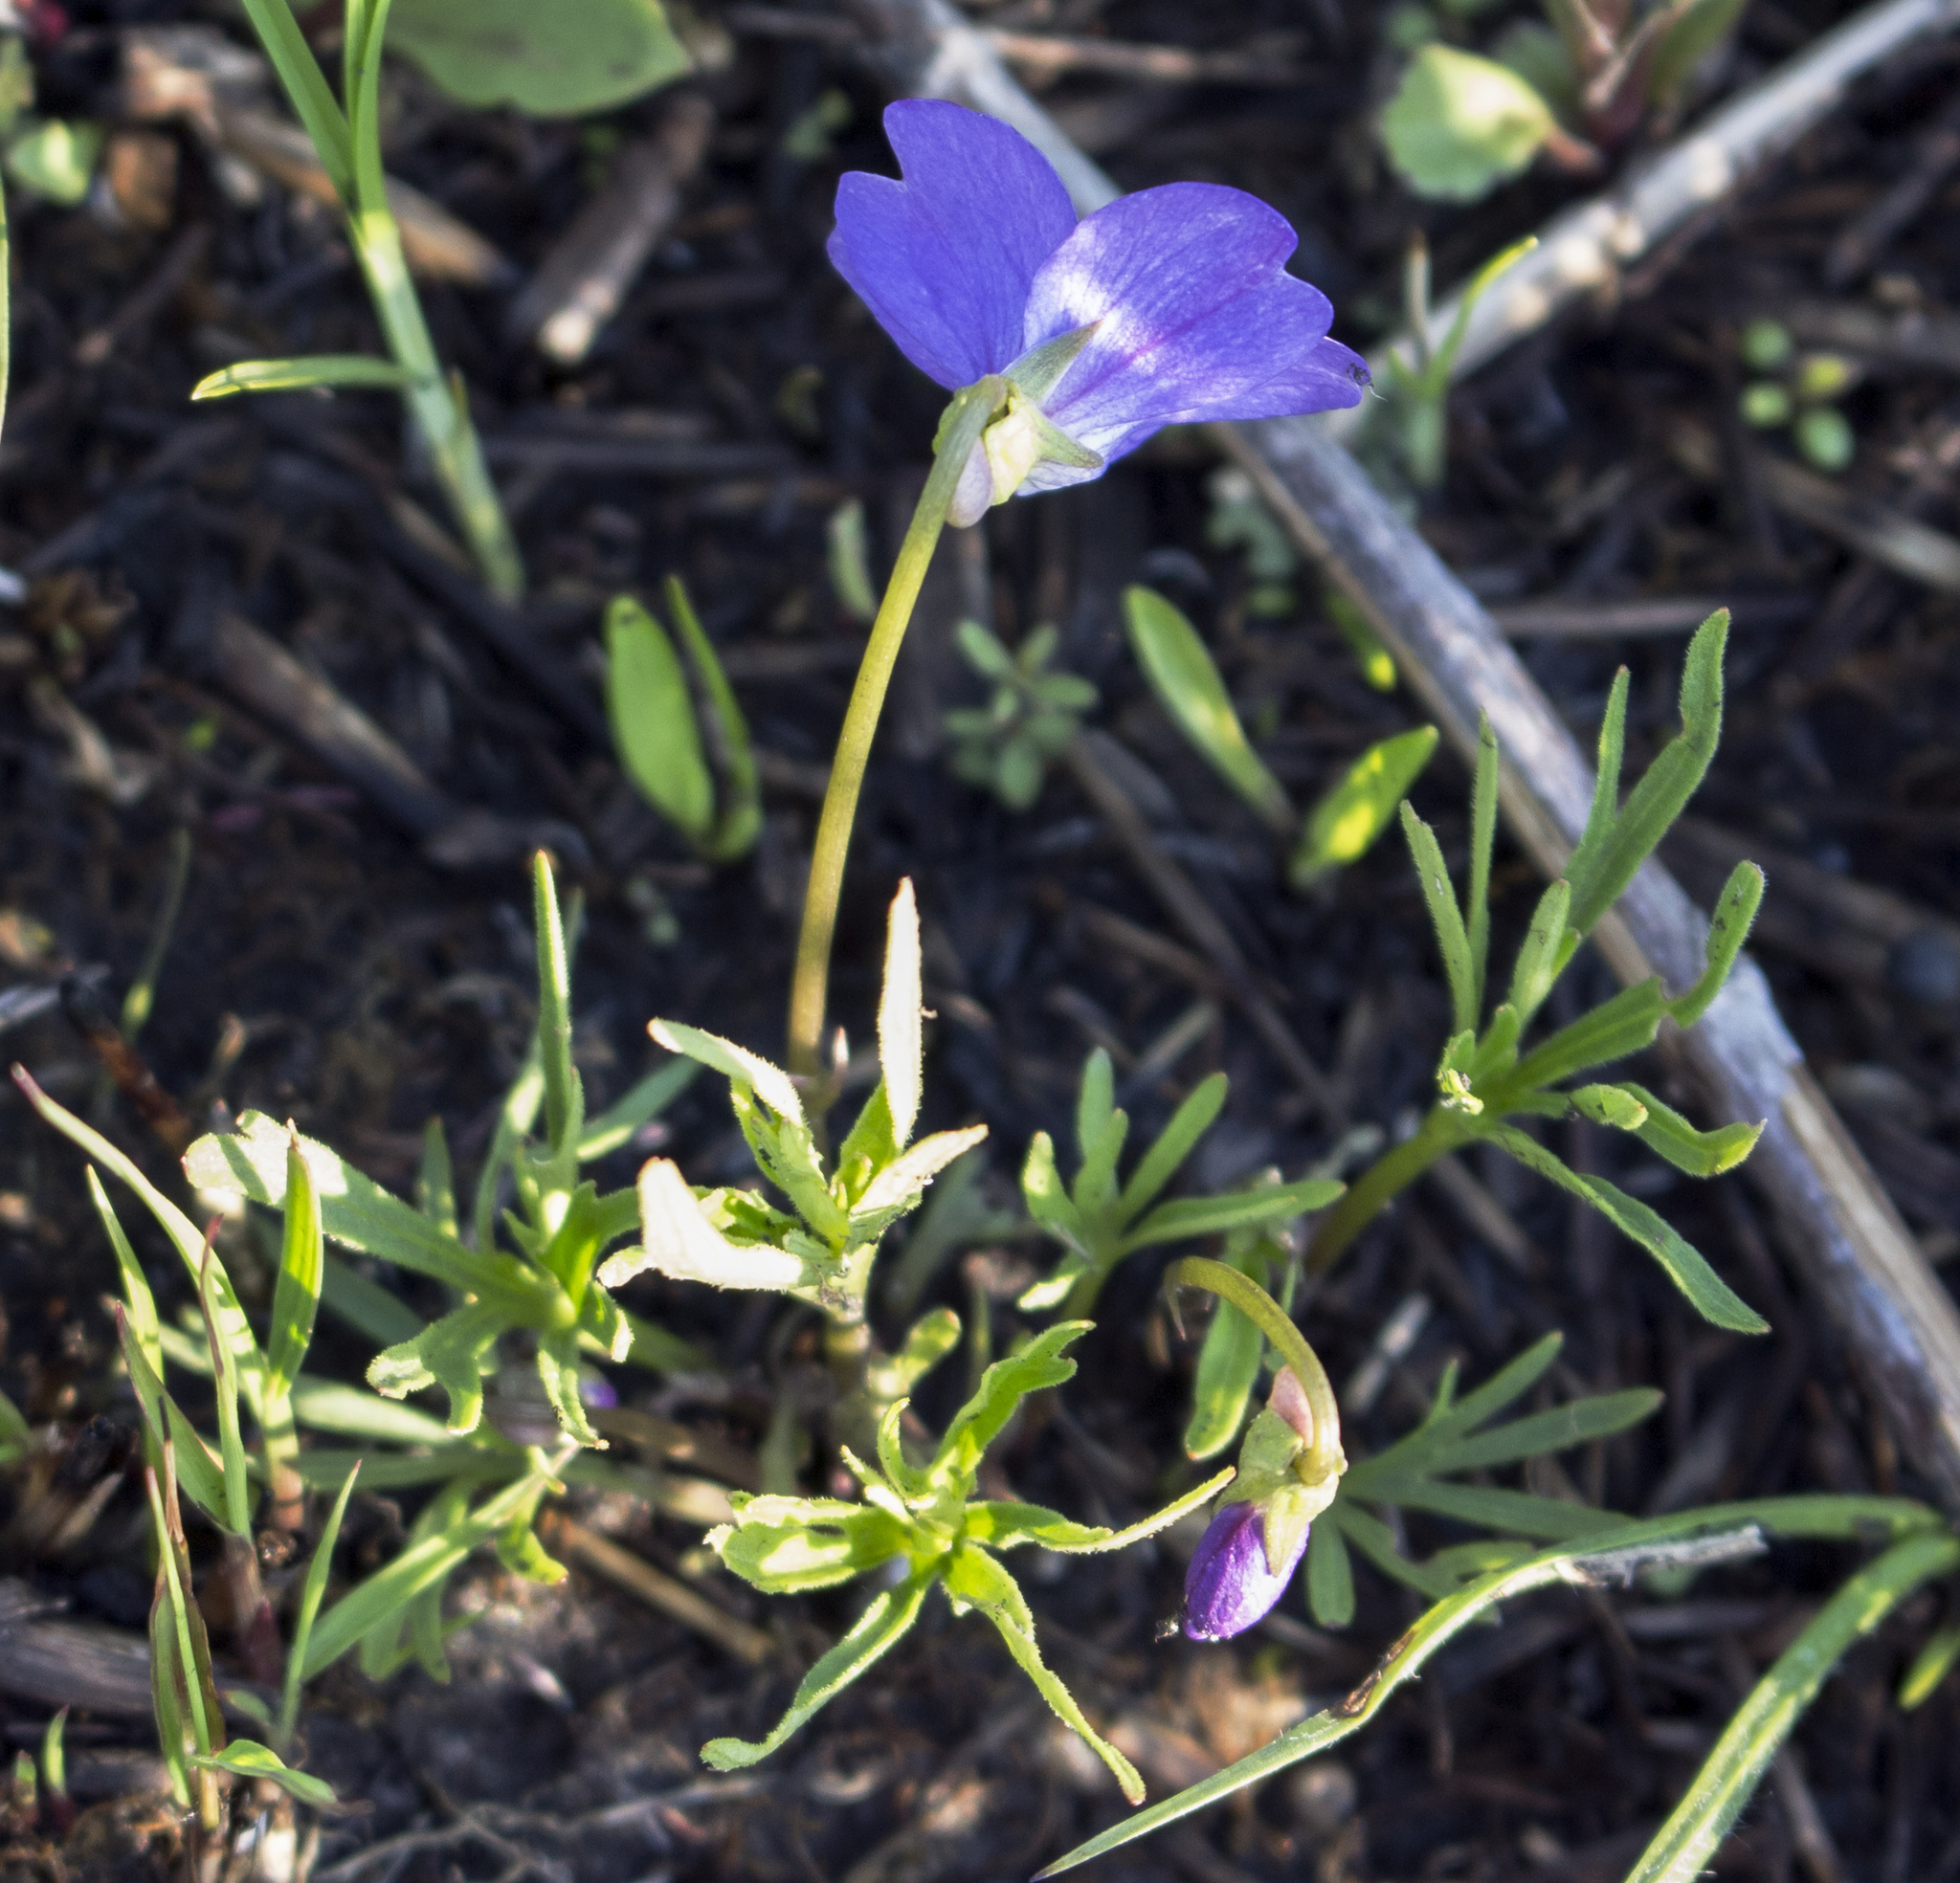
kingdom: Plantae
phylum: Tracheophyta
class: Magnoliopsida
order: Malpighiales
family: Violaceae
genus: Viola
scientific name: Viola pedatifida
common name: Prairie violet
